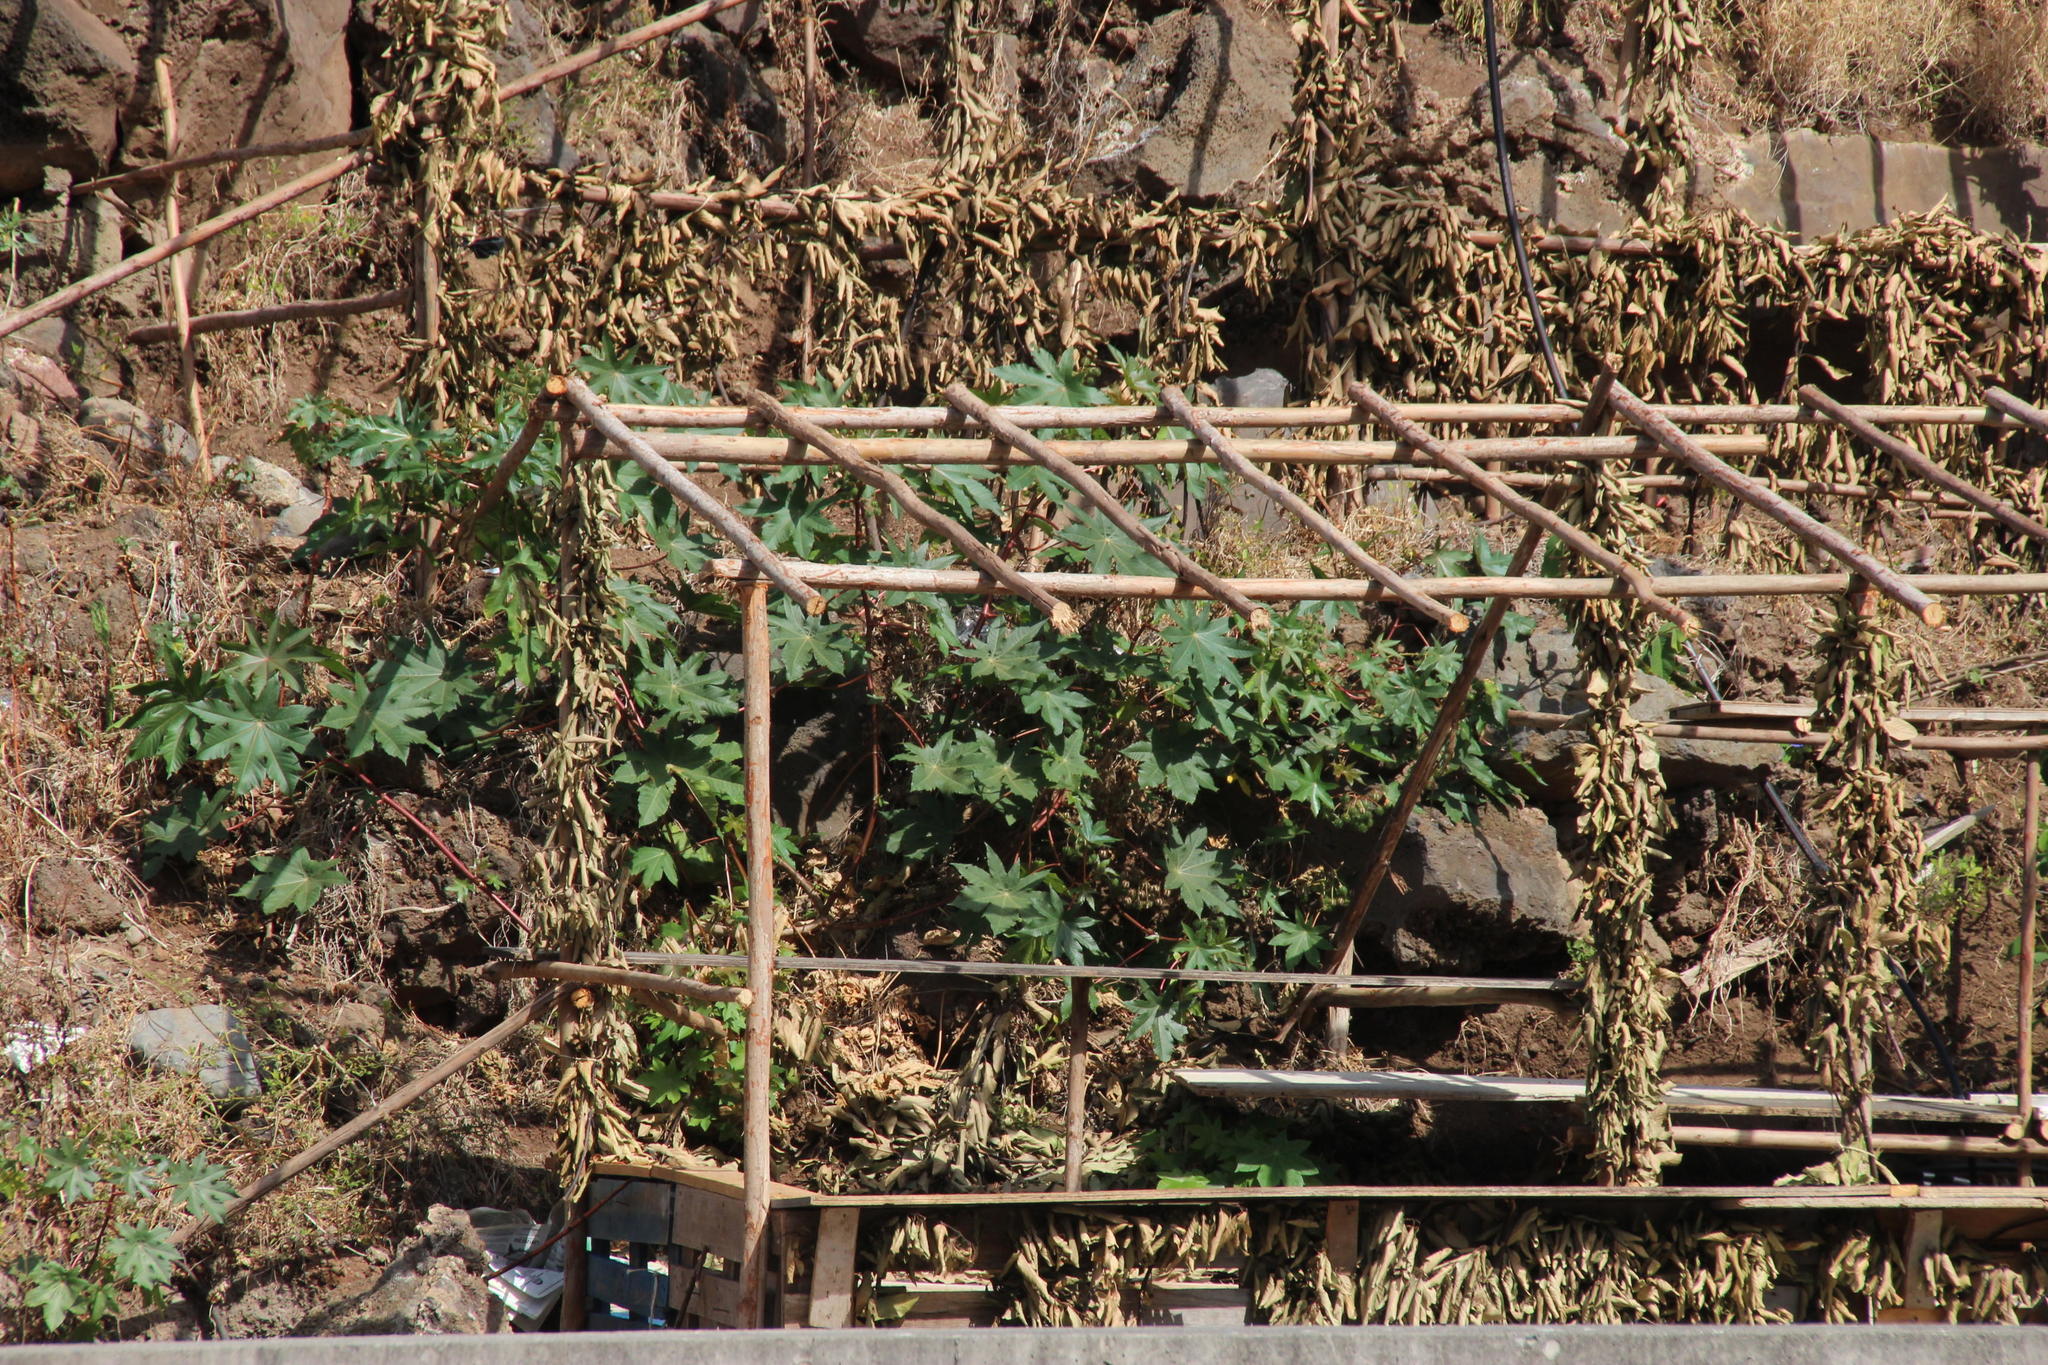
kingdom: Plantae
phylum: Tracheophyta
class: Magnoliopsida
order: Malpighiales
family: Euphorbiaceae
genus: Ricinus
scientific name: Ricinus communis
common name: Castor-oil-plant
